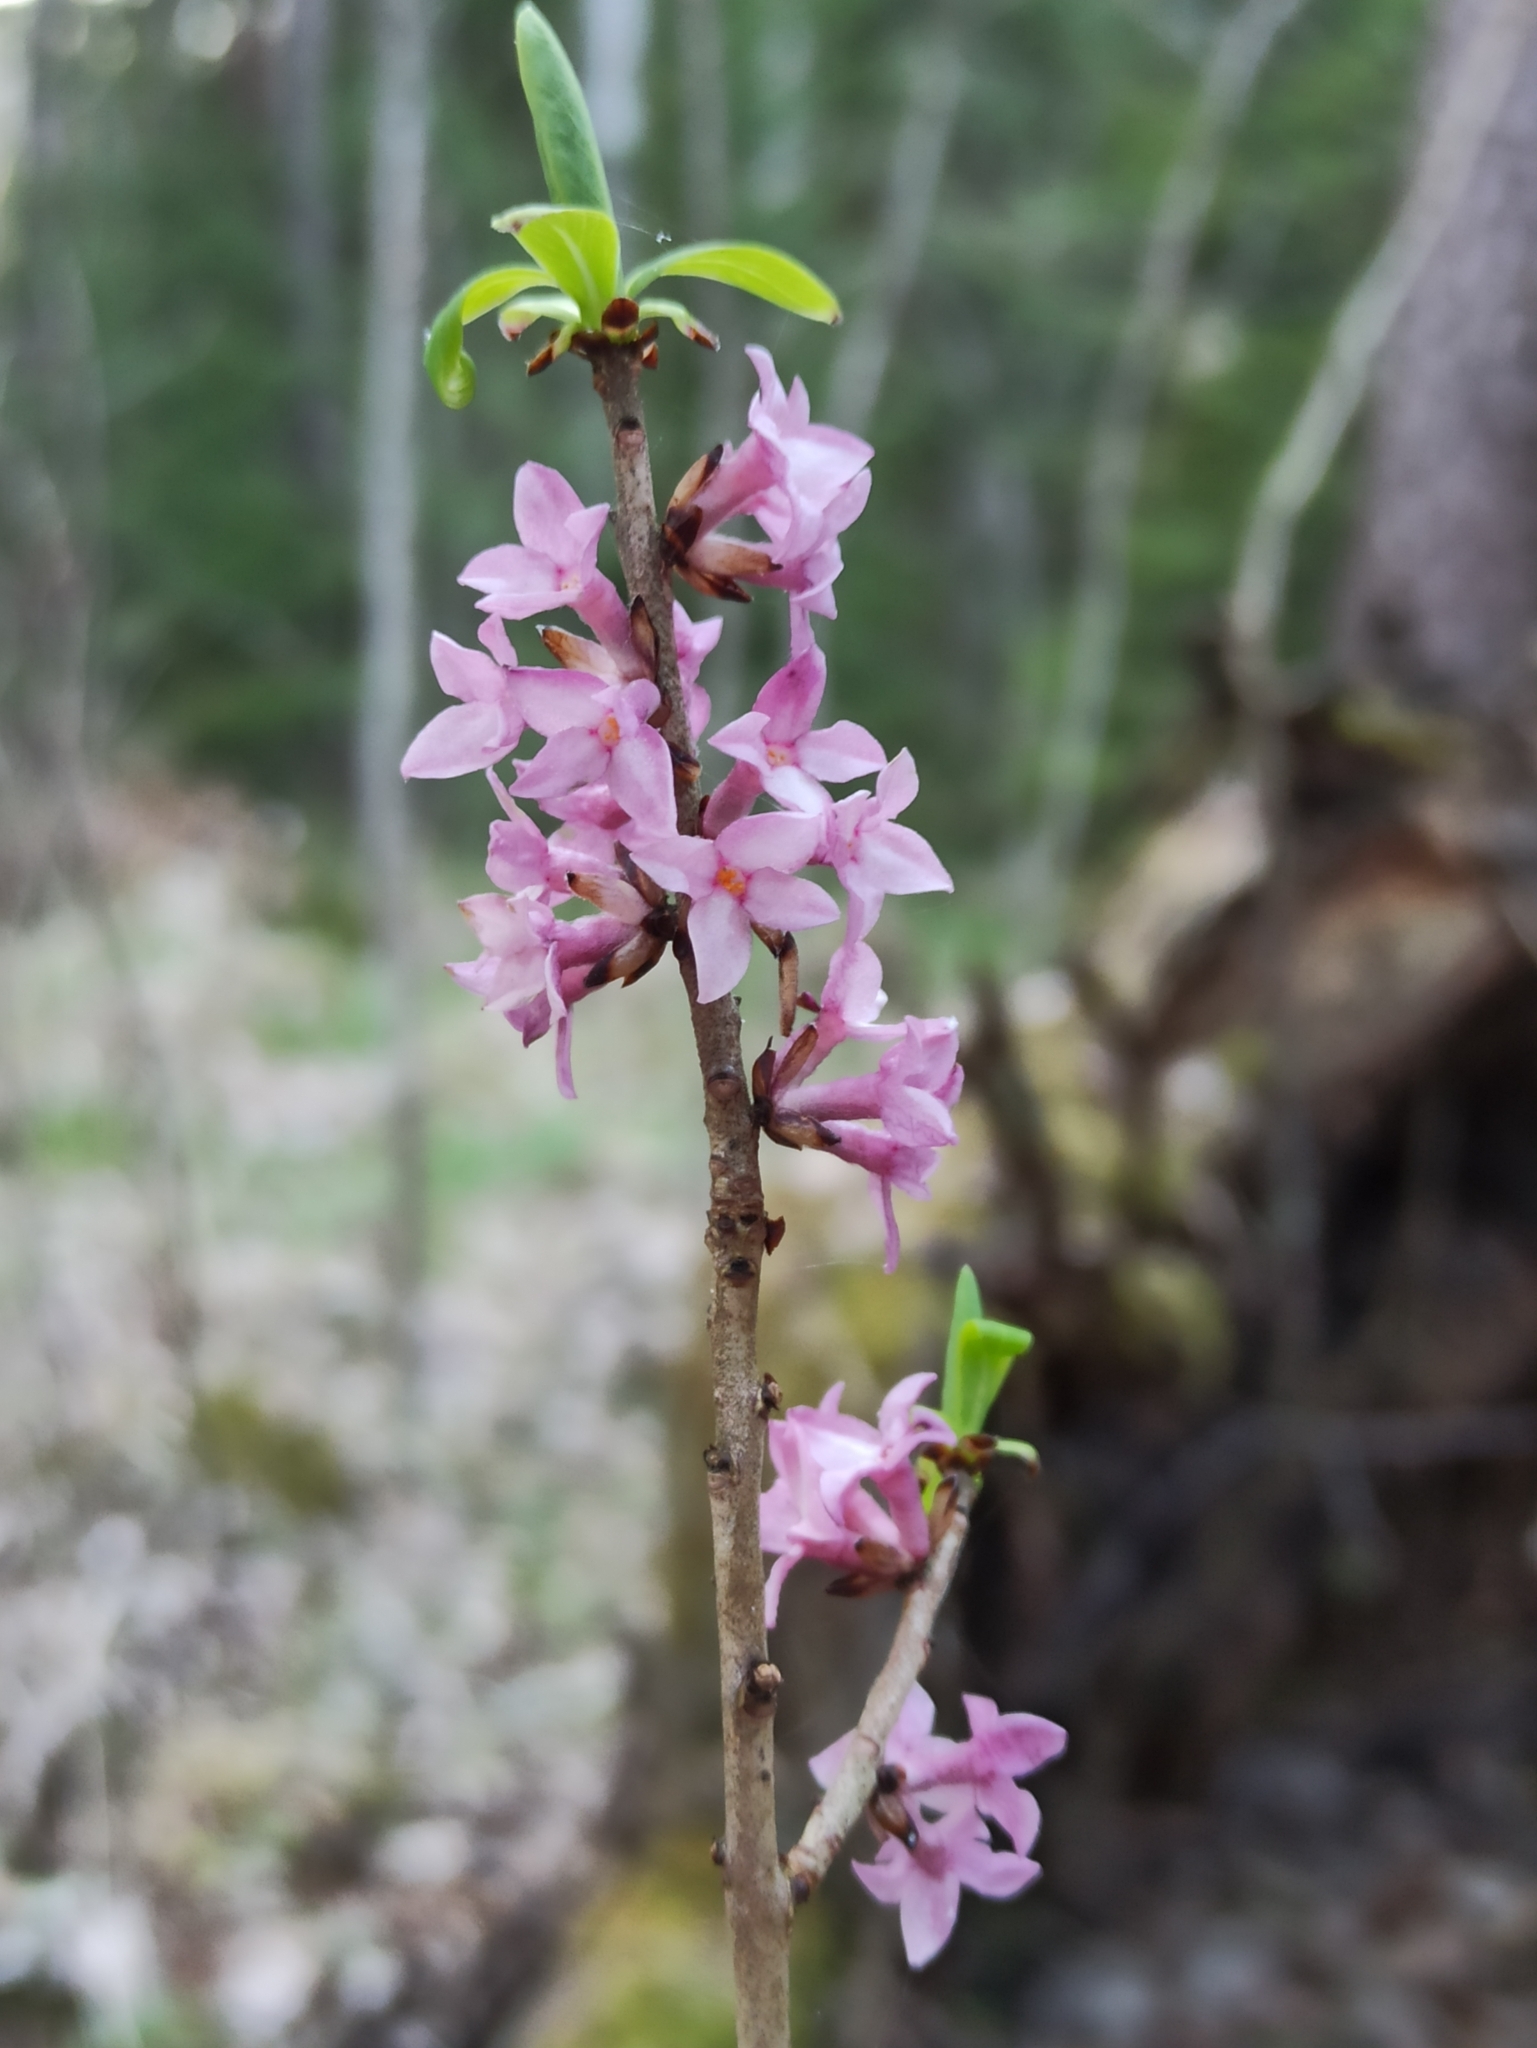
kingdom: Plantae
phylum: Tracheophyta
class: Magnoliopsida
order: Malvales
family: Thymelaeaceae
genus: Daphne
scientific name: Daphne mezereum
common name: Mezereon
